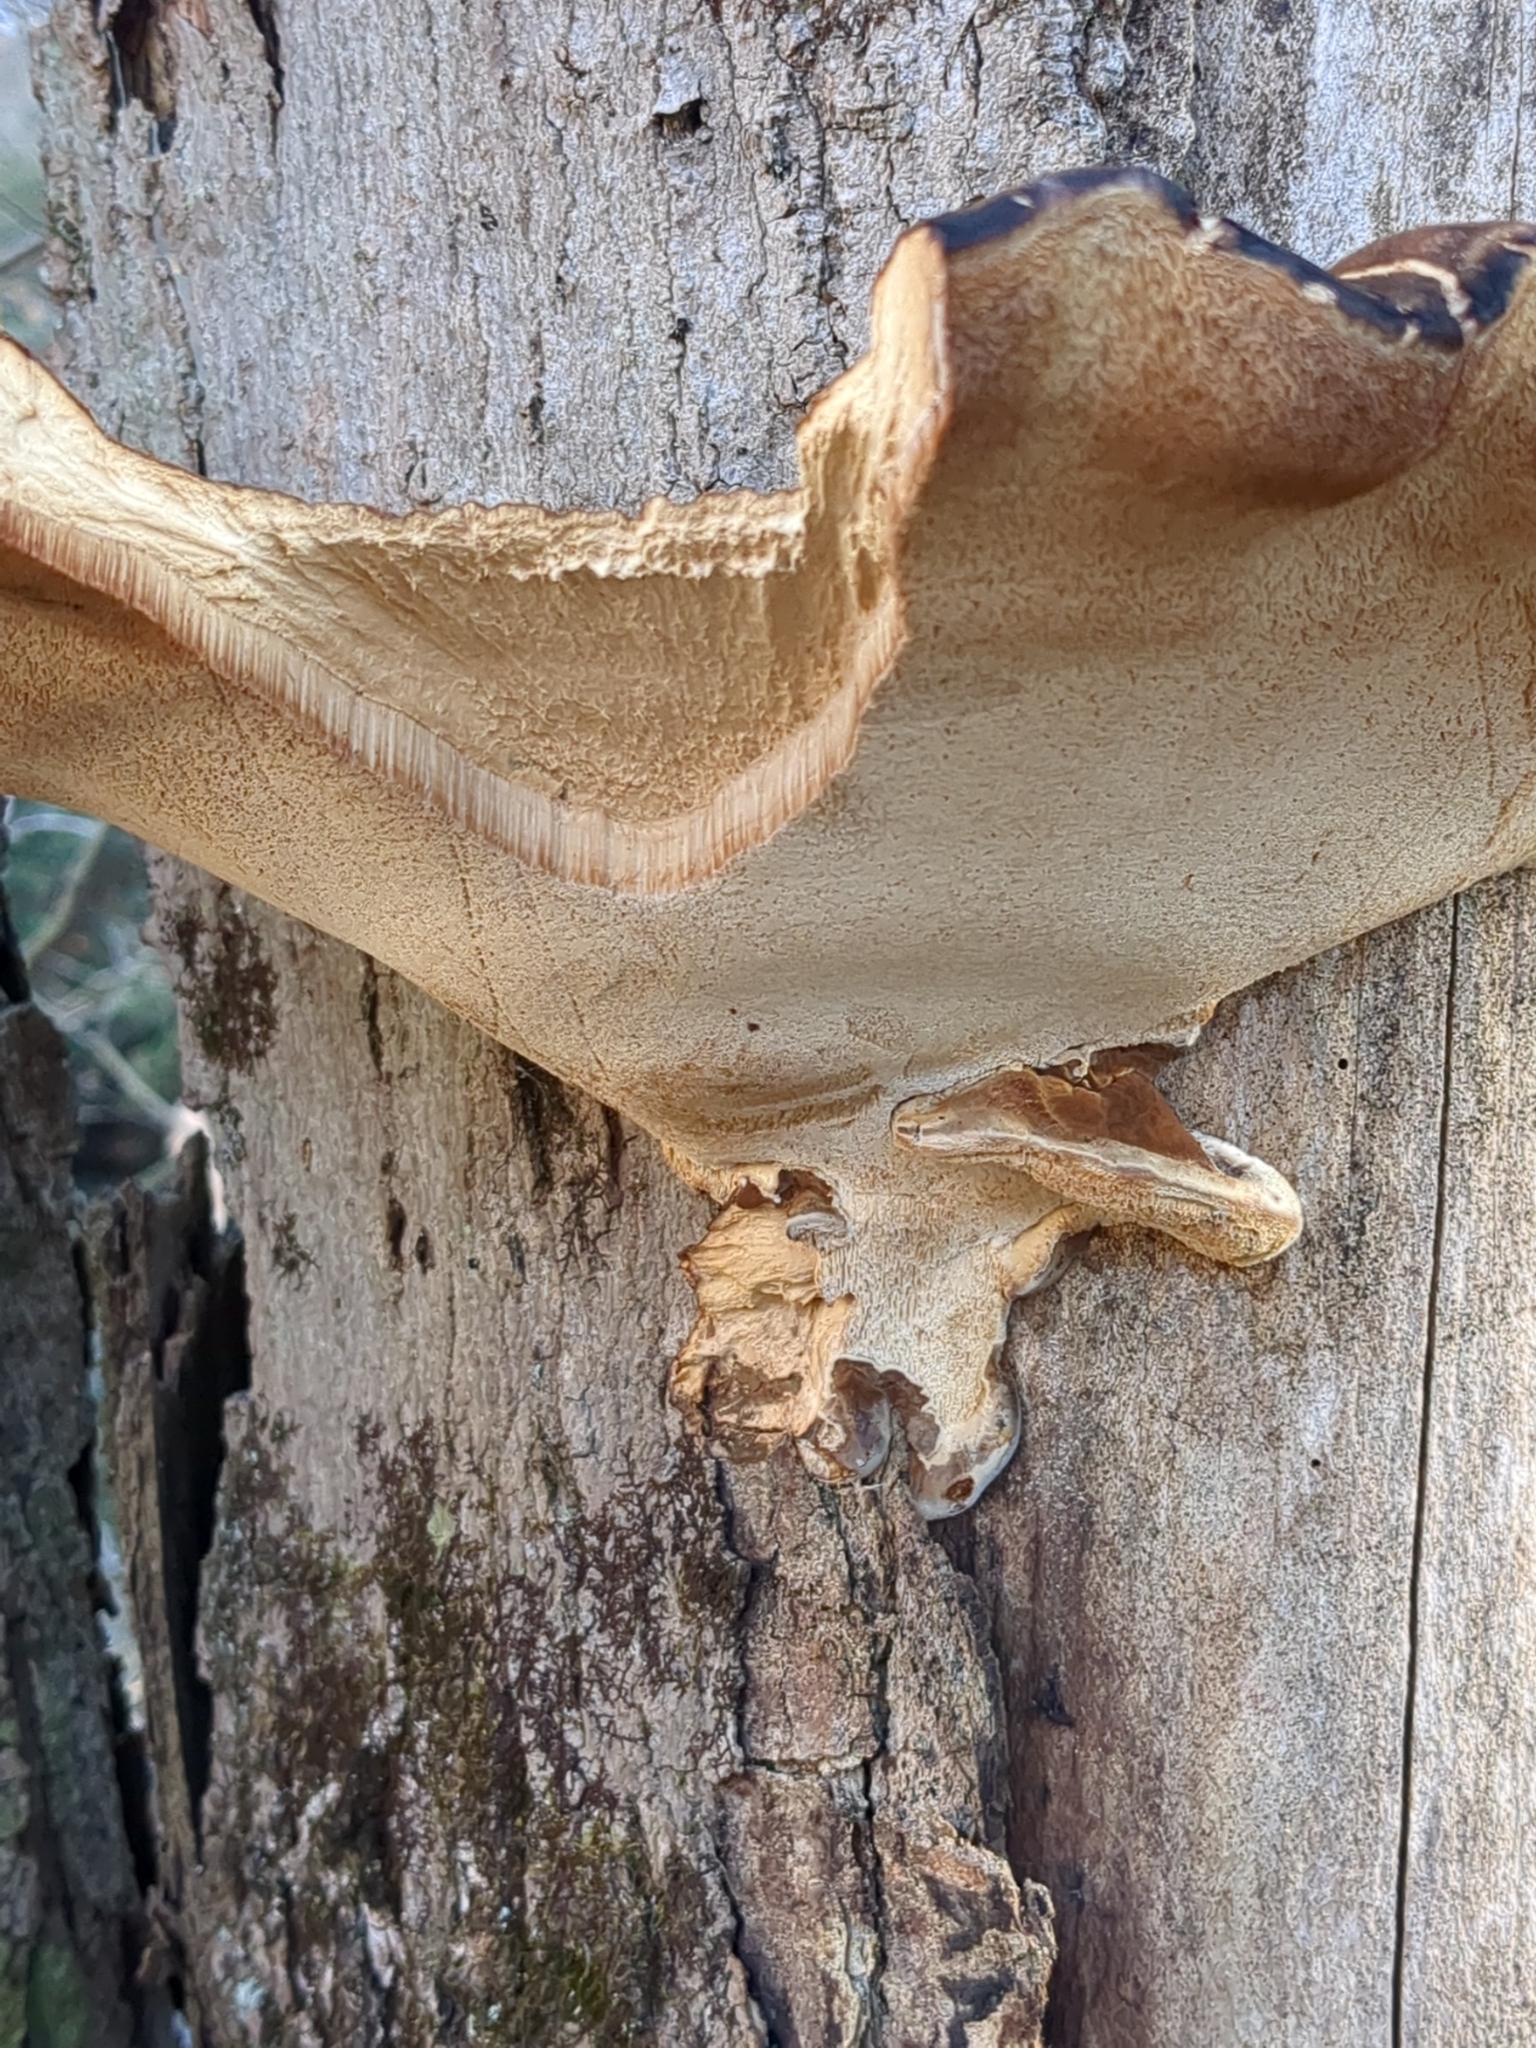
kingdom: Fungi
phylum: Basidiomycota
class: Agaricomycetes
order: Polyporales
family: Ischnodermataceae
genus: Ischnoderma
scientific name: Ischnoderma resinosum
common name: Resinous polypore
